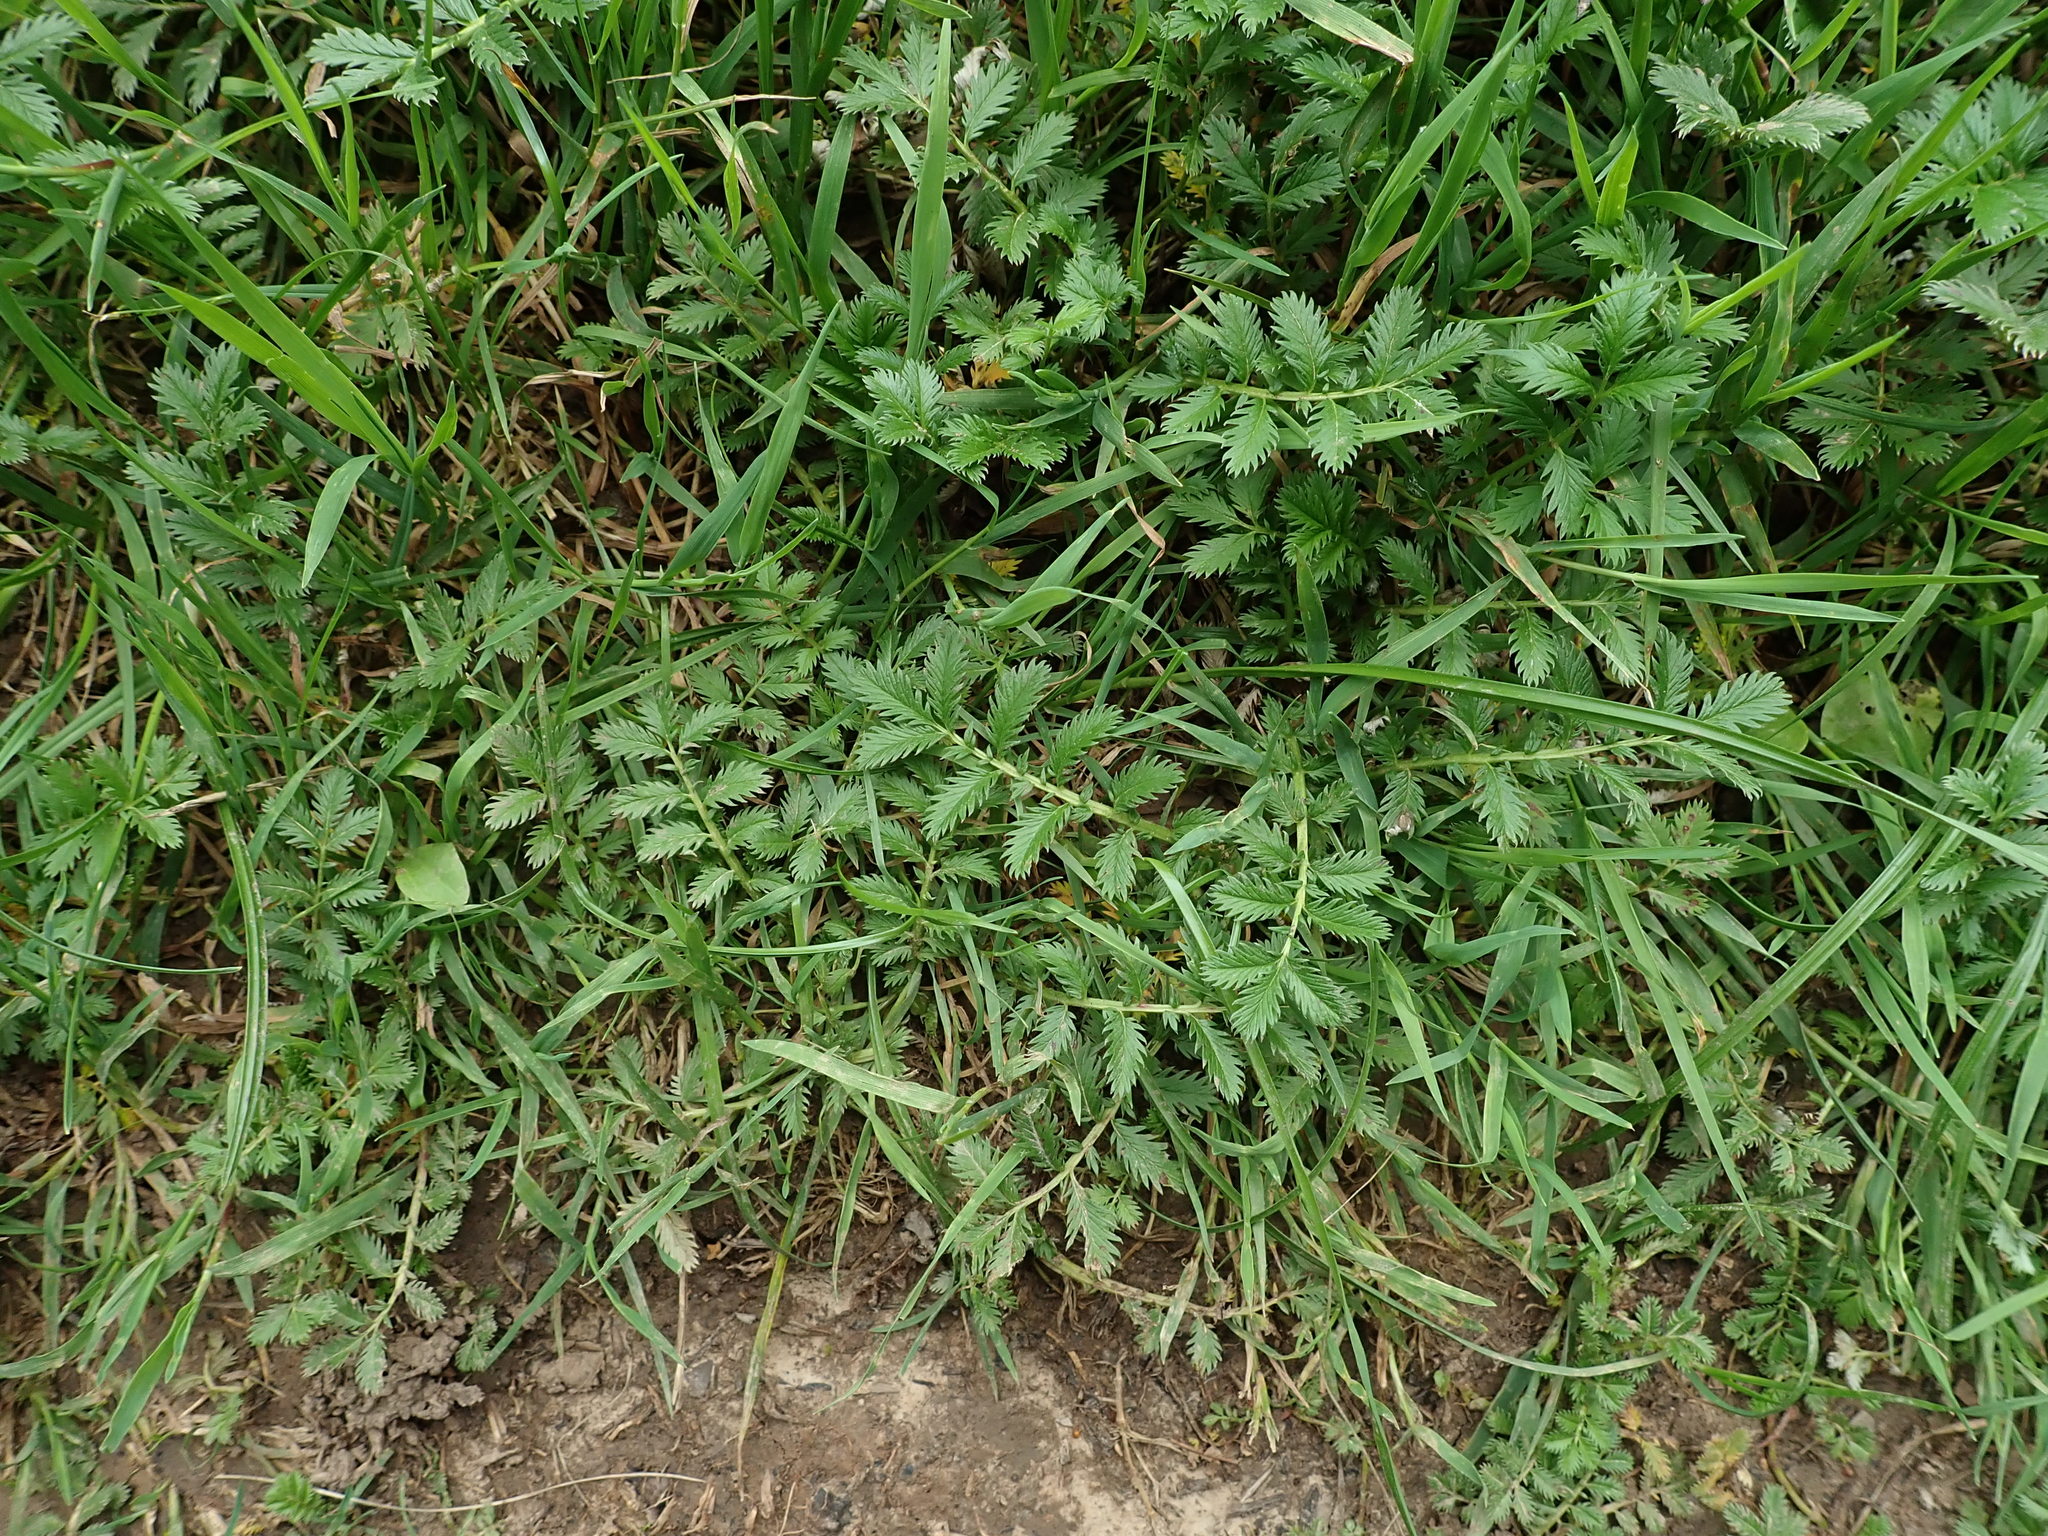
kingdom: Plantae
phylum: Tracheophyta
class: Magnoliopsida
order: Rosales
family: Rosaceae
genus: Argentina
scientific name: Argentina anserina
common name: Common silverweed
